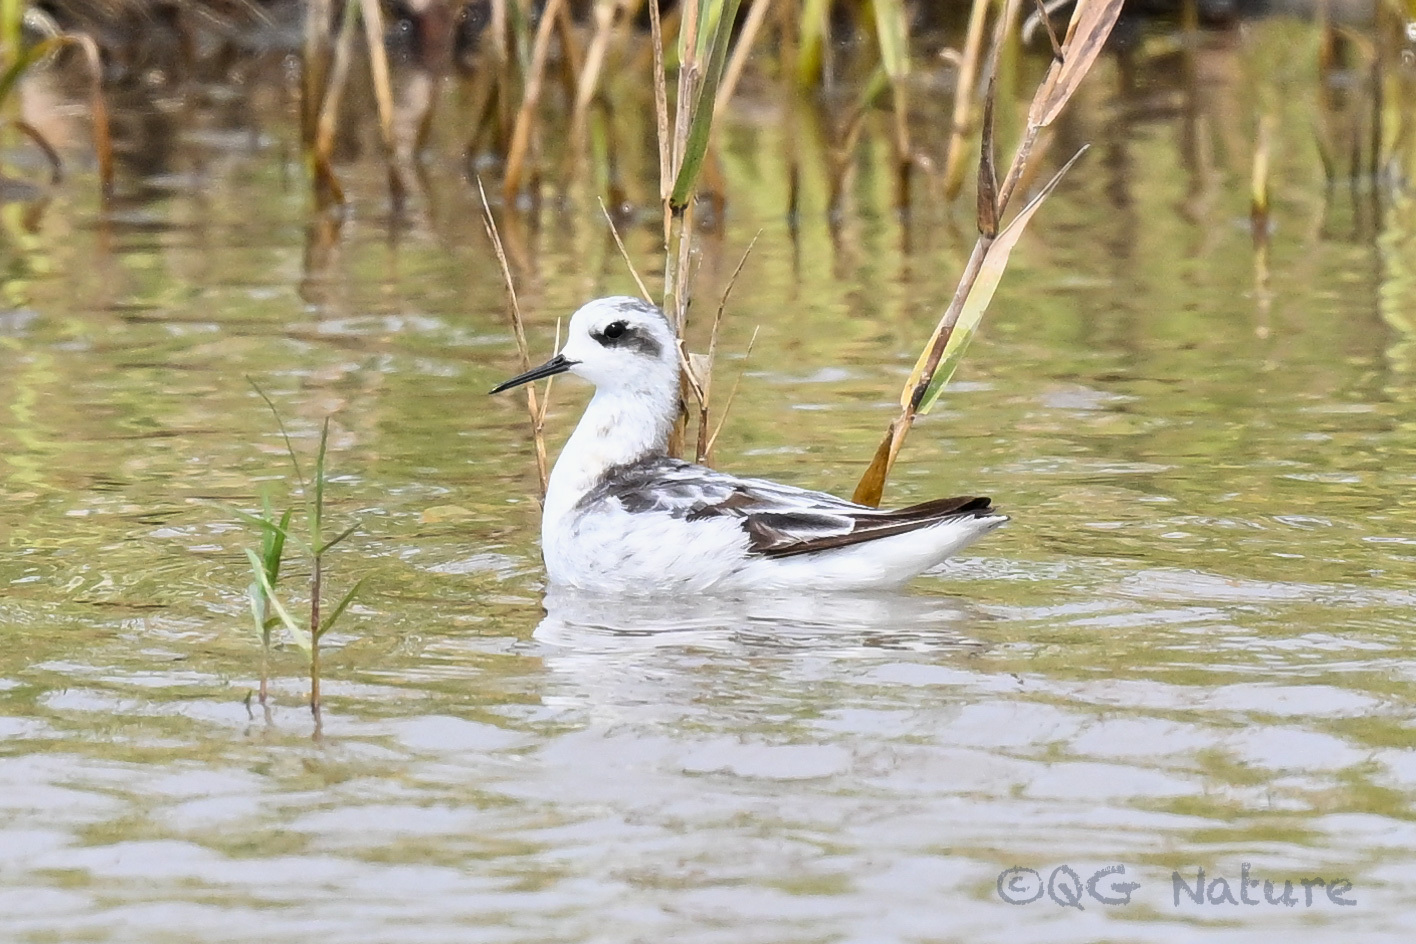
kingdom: Animalia
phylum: Chordata
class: Aves
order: Charadriiformes
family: Scolopacidae
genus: Phalaropus
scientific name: Phalaropus lobatus
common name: Red-necked phalarope
